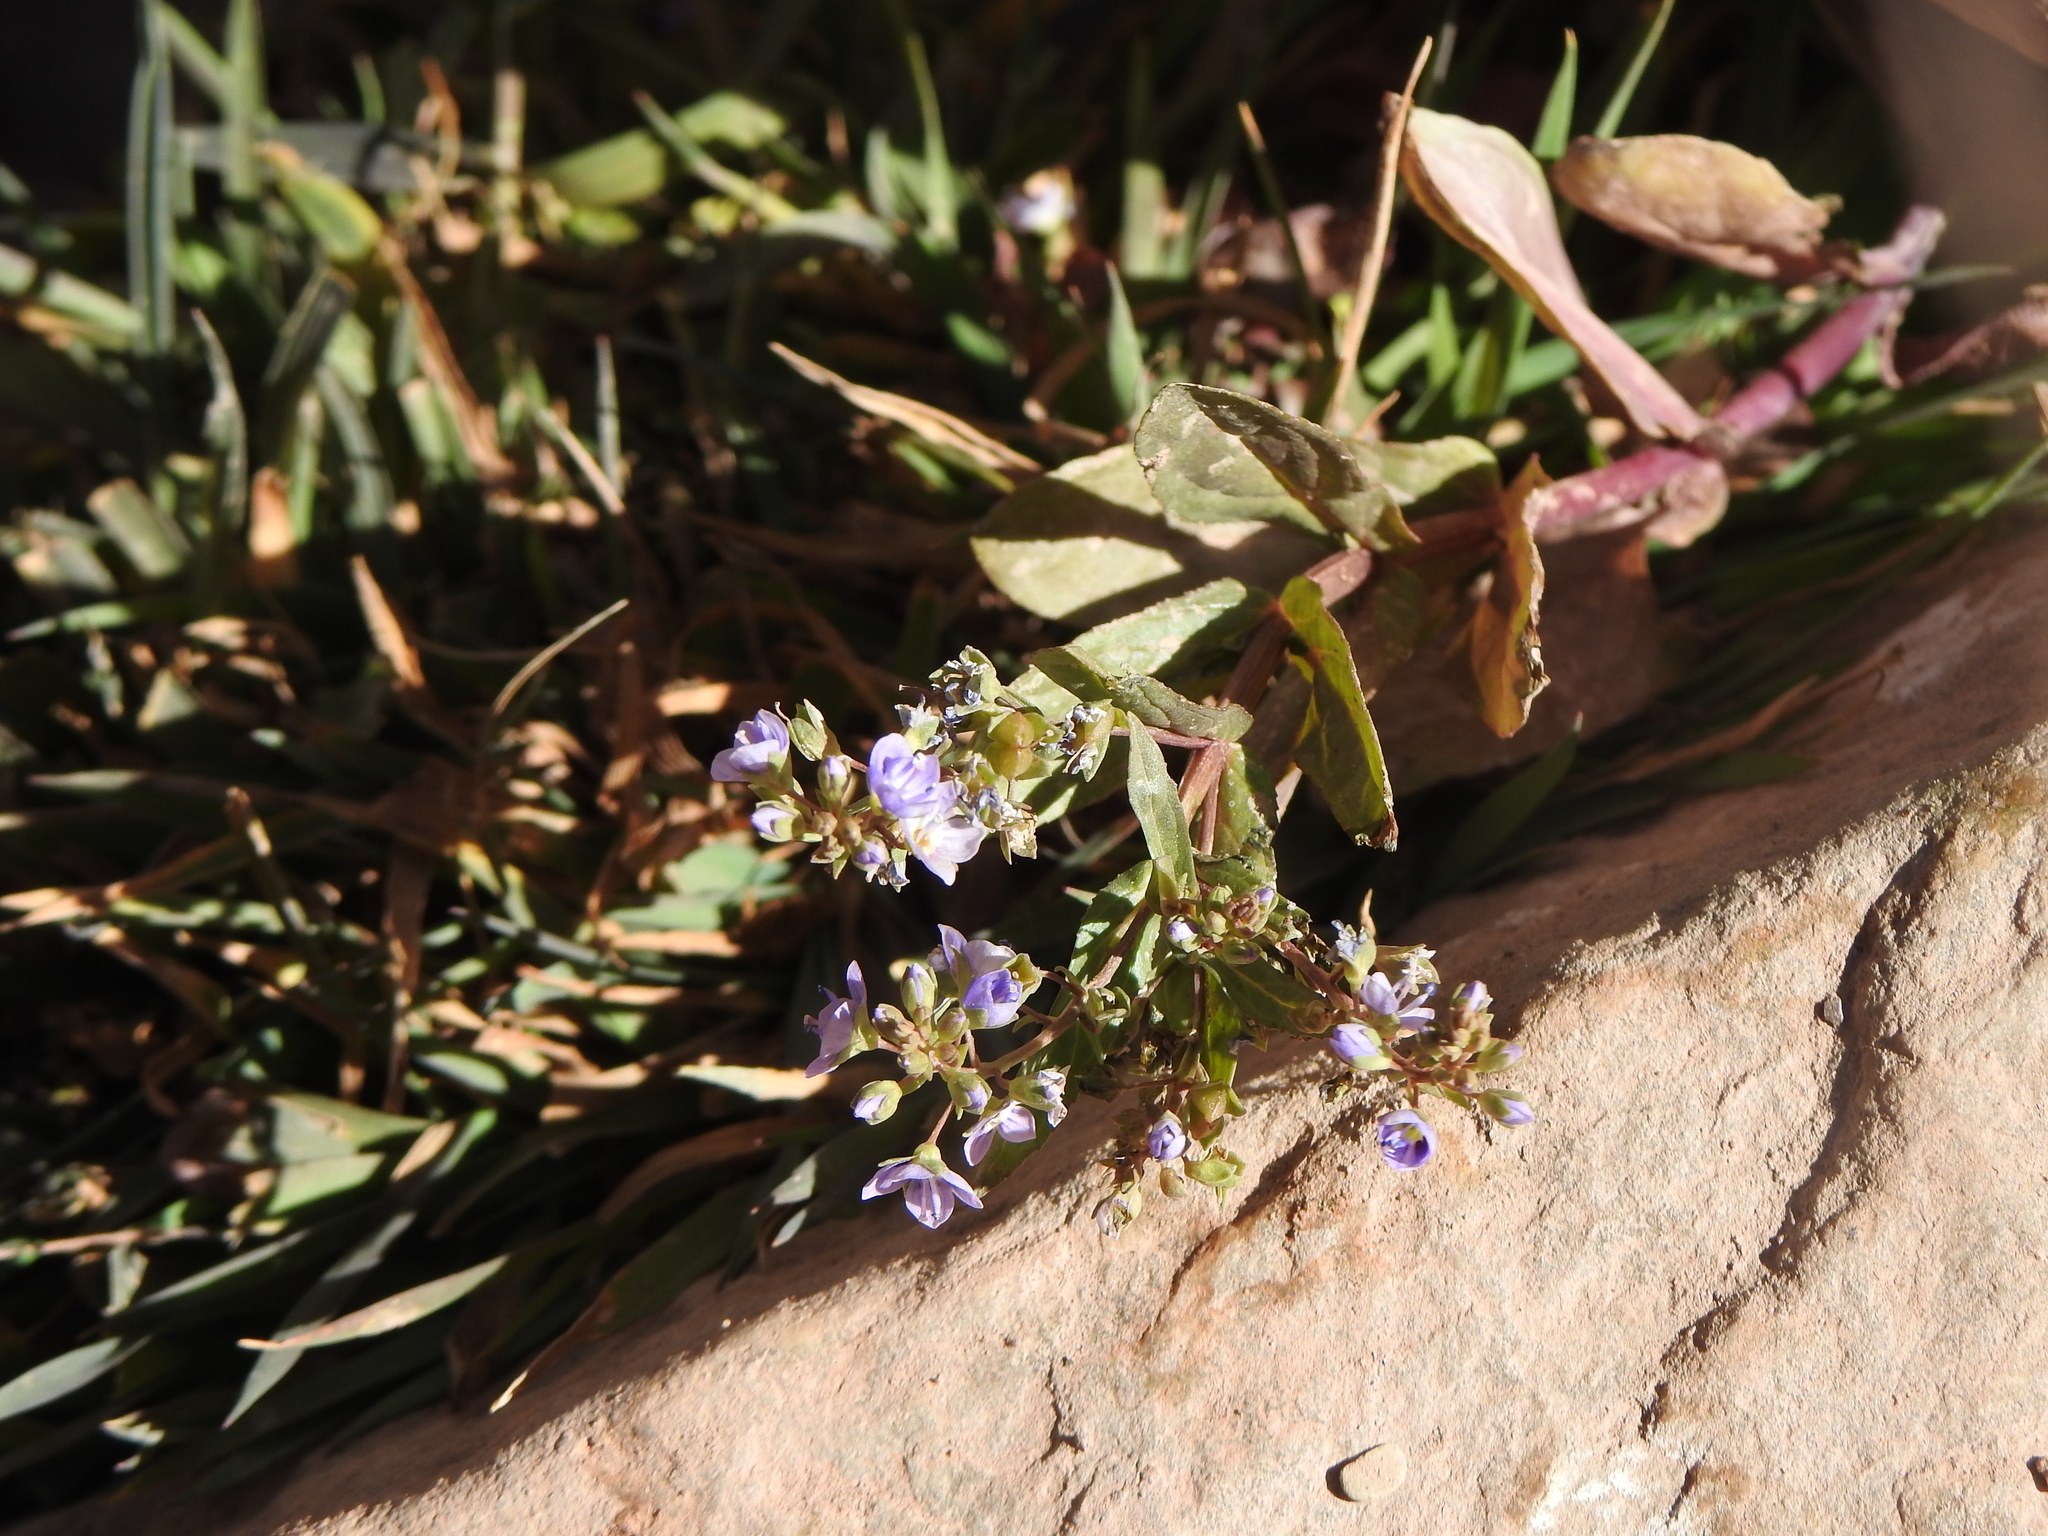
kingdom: Plantae
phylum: Tracheophyta
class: Magnoliopsida
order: Lamiales
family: Plantaginaceae
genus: Veronica
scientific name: Veronica anagallis-aquatica
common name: Water speedwell
